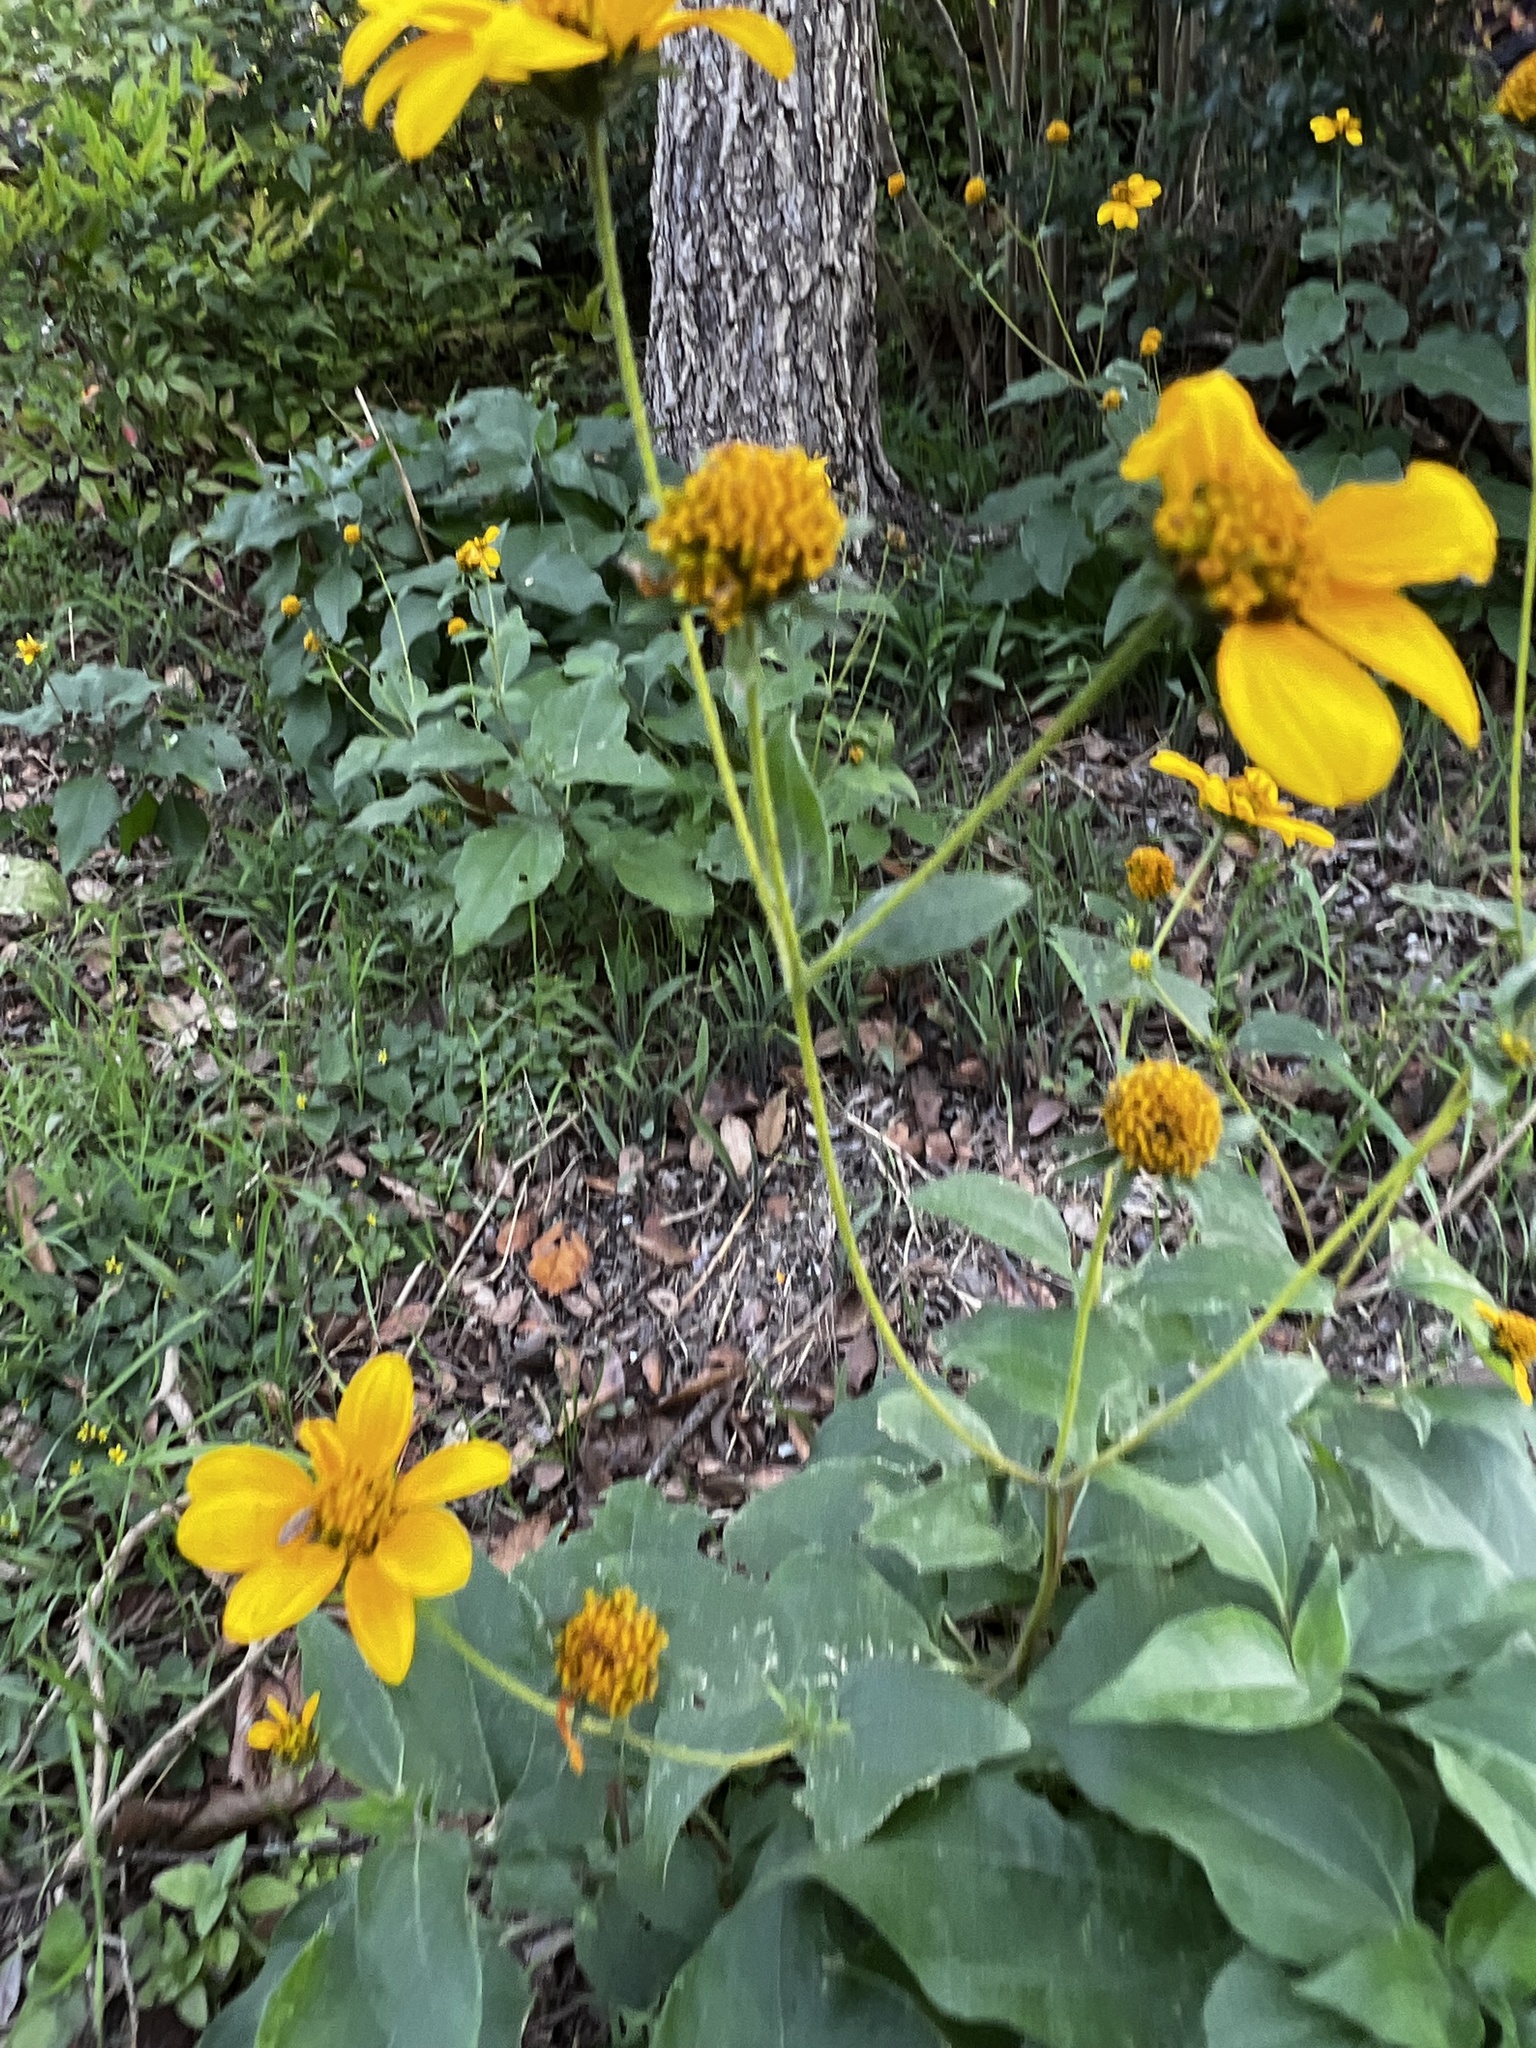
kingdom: Plantae
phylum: Tracheophyta
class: Magnoliopsida
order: Asterales
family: Asteraceae
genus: Viguiera
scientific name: Viguiera dentata
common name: Toothleaf
